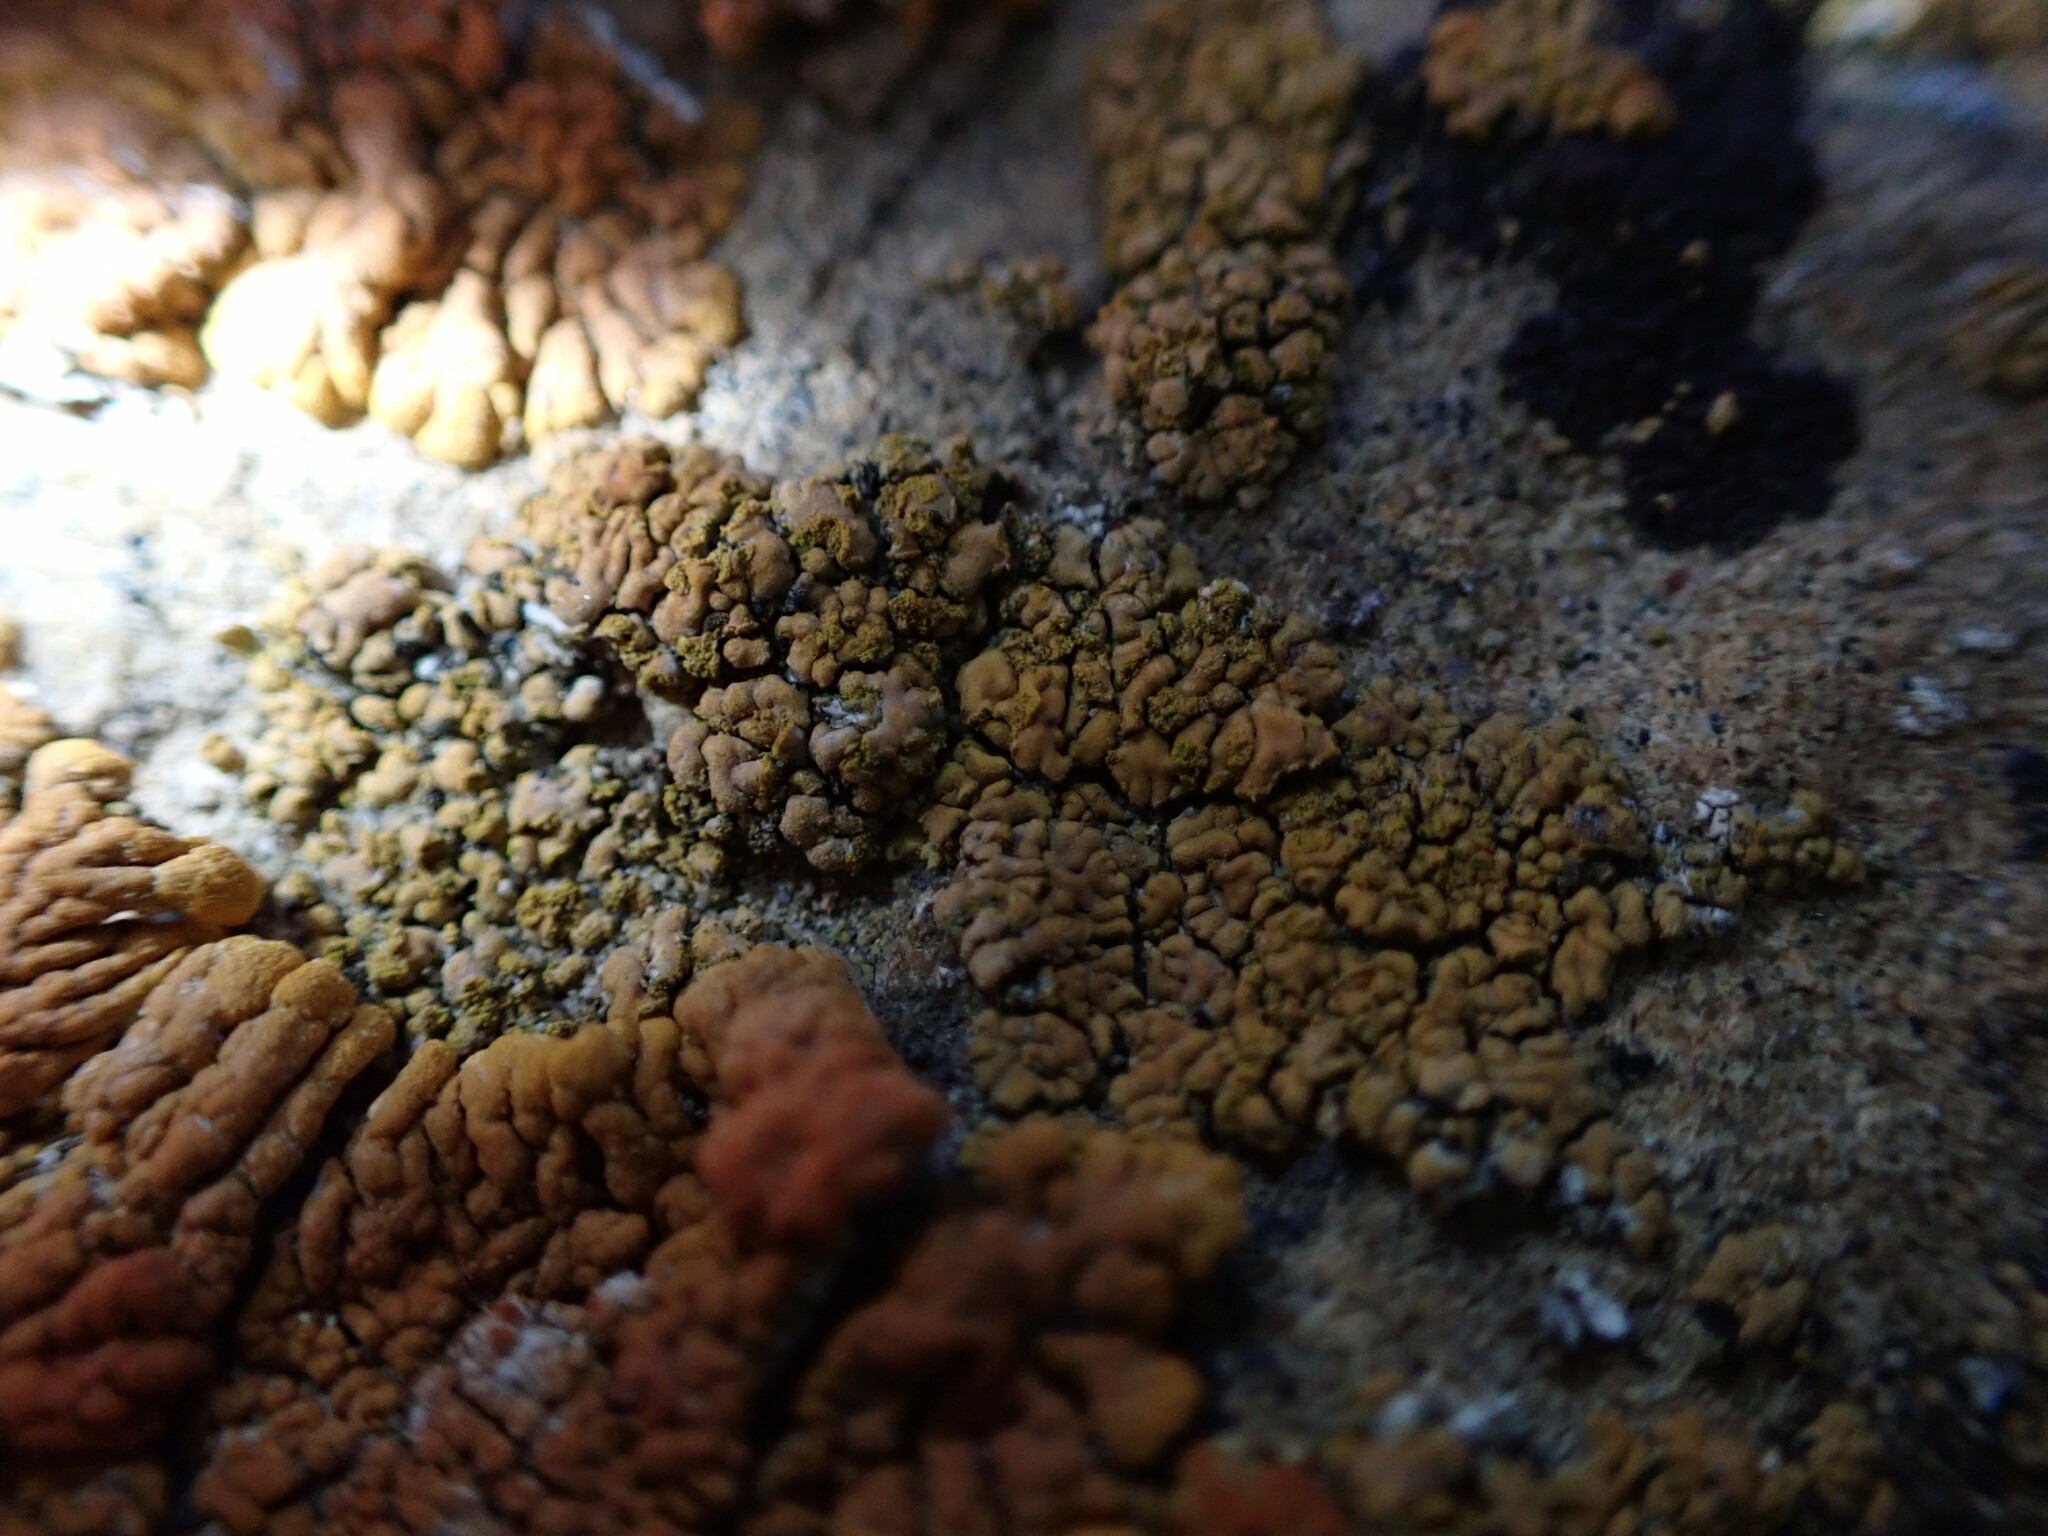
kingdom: Fungi
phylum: Ascomycota
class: Lecanoromycetes
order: Teloschistales
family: Teloschistaceae
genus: Calogaya
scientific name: Calogaya decipiens
